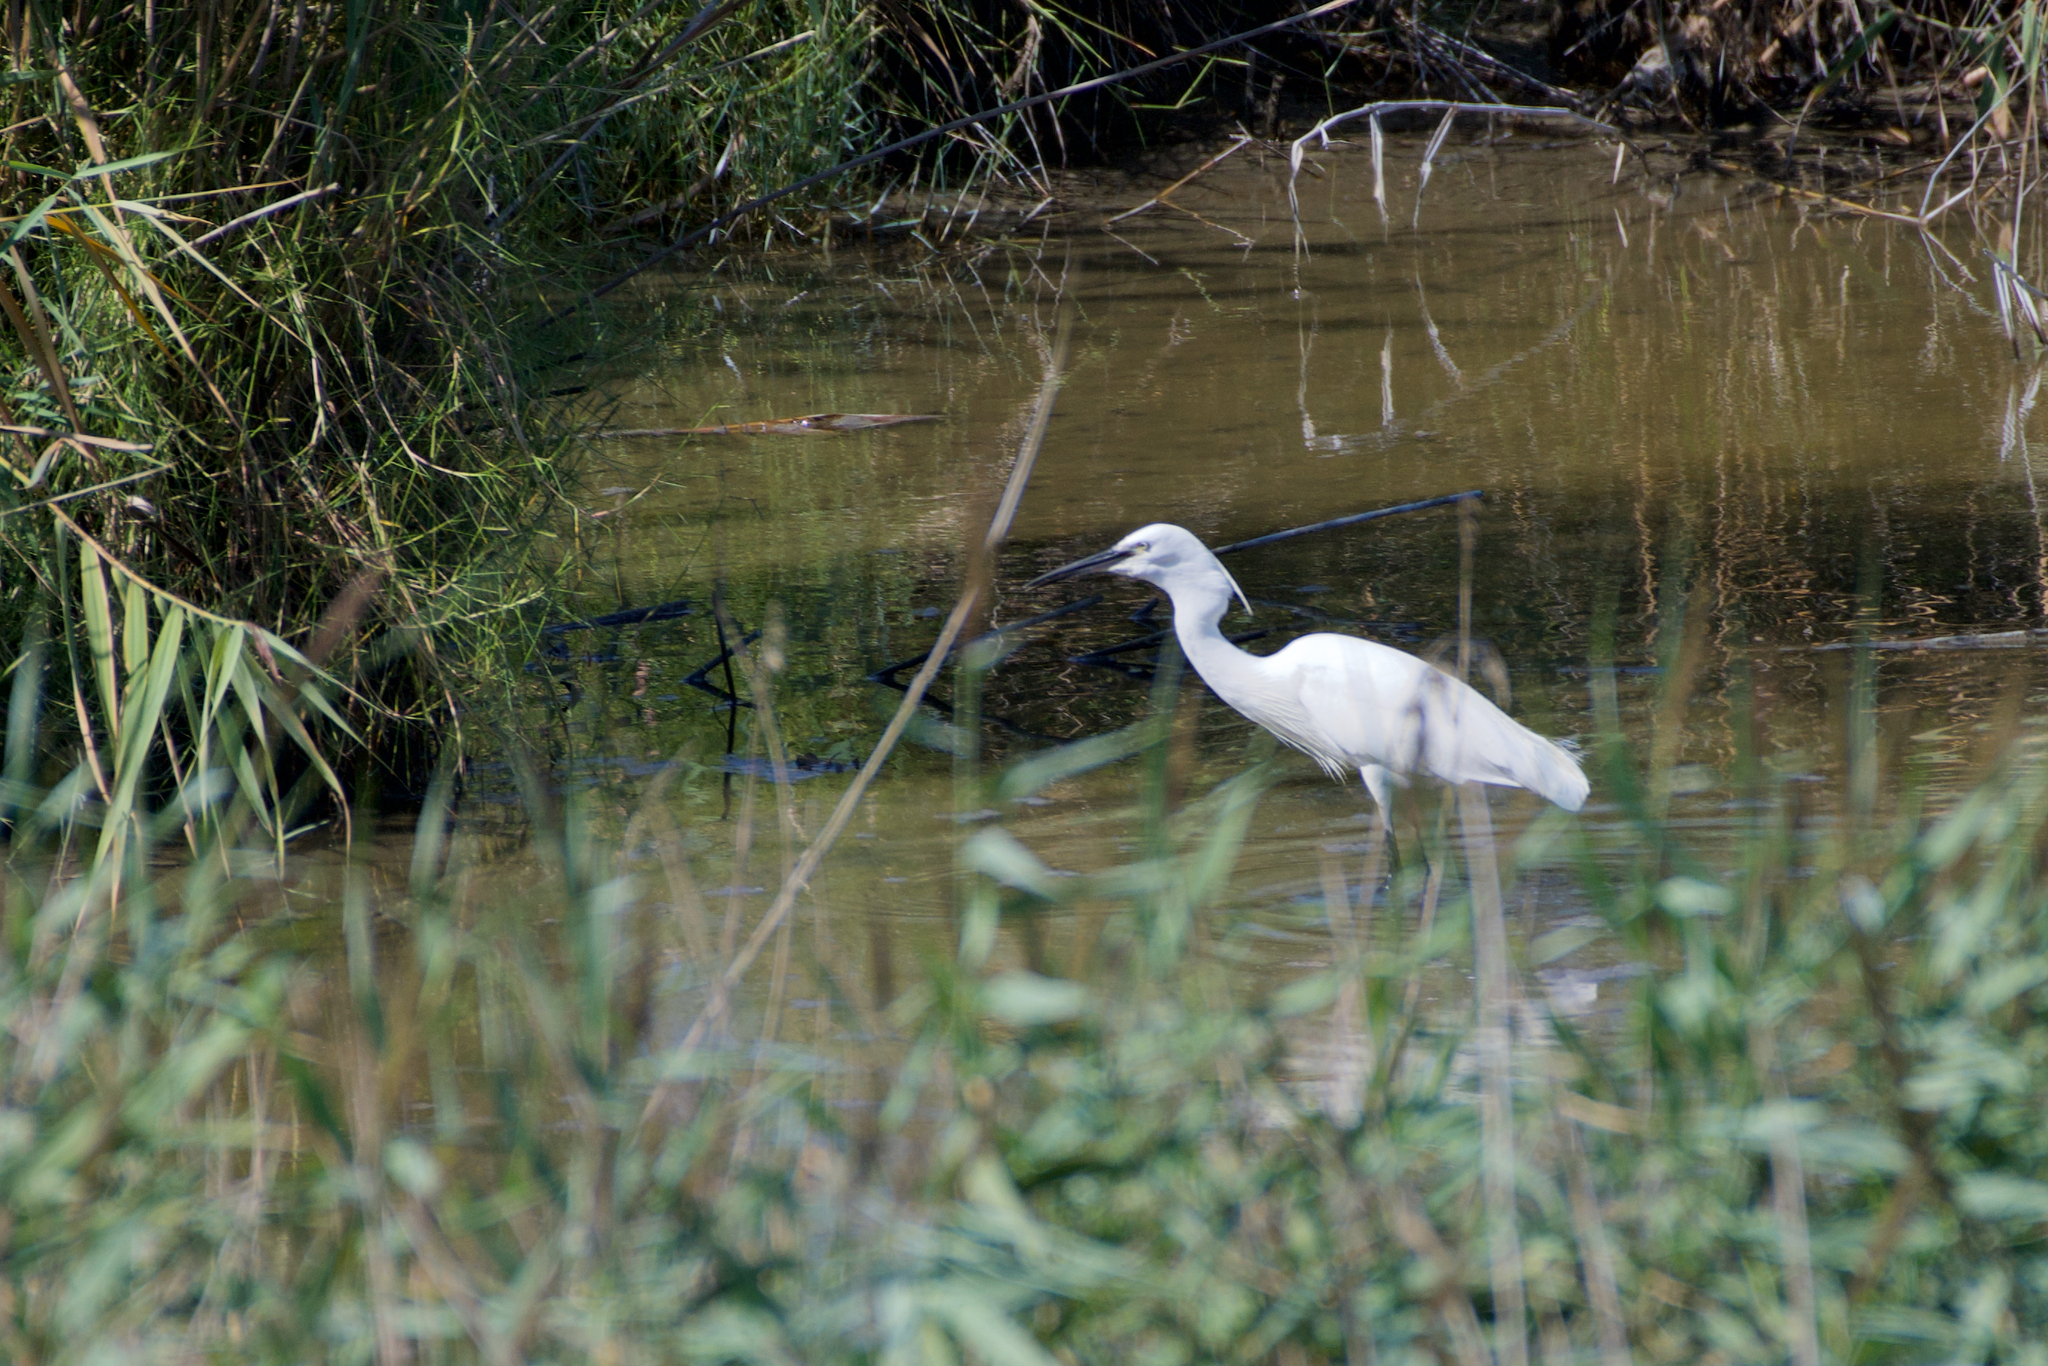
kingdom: Animalia
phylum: Chordata
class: Aves
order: Pelecaniformes
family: Ardeidae
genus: Egretta
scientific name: Egretta garzetta
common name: Little egret
